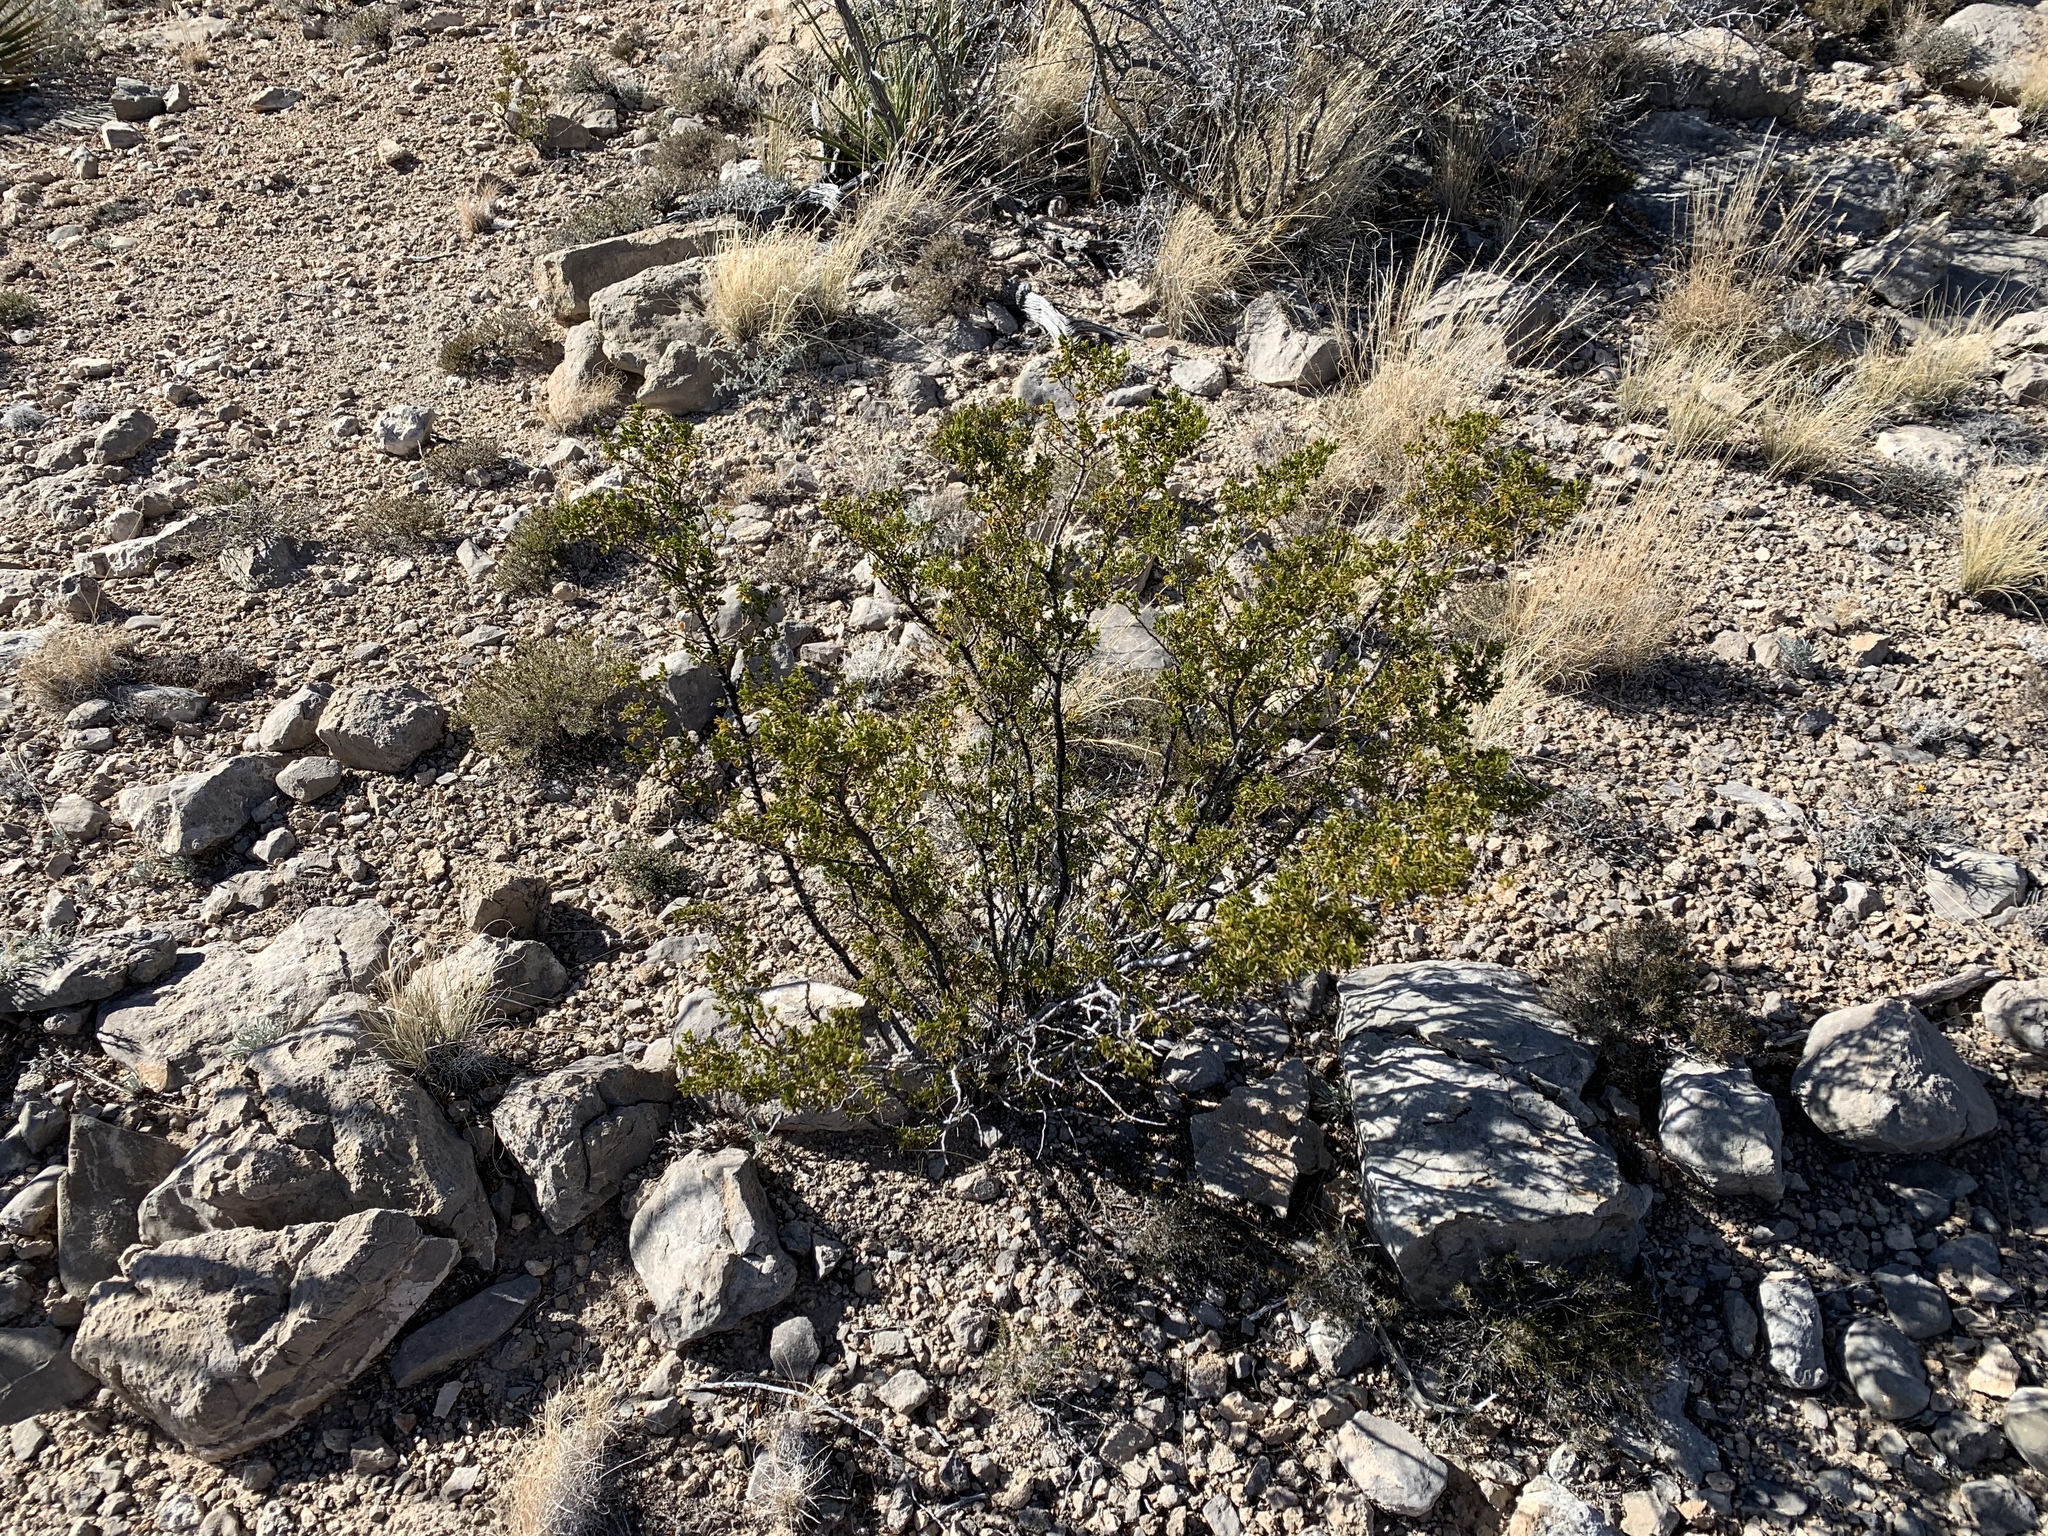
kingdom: Plantae
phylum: Tracheophyta
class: Magnoliopsida
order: Zygophyllales
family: Zygophyllaceae
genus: Larrea
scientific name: Larrea tridentata
